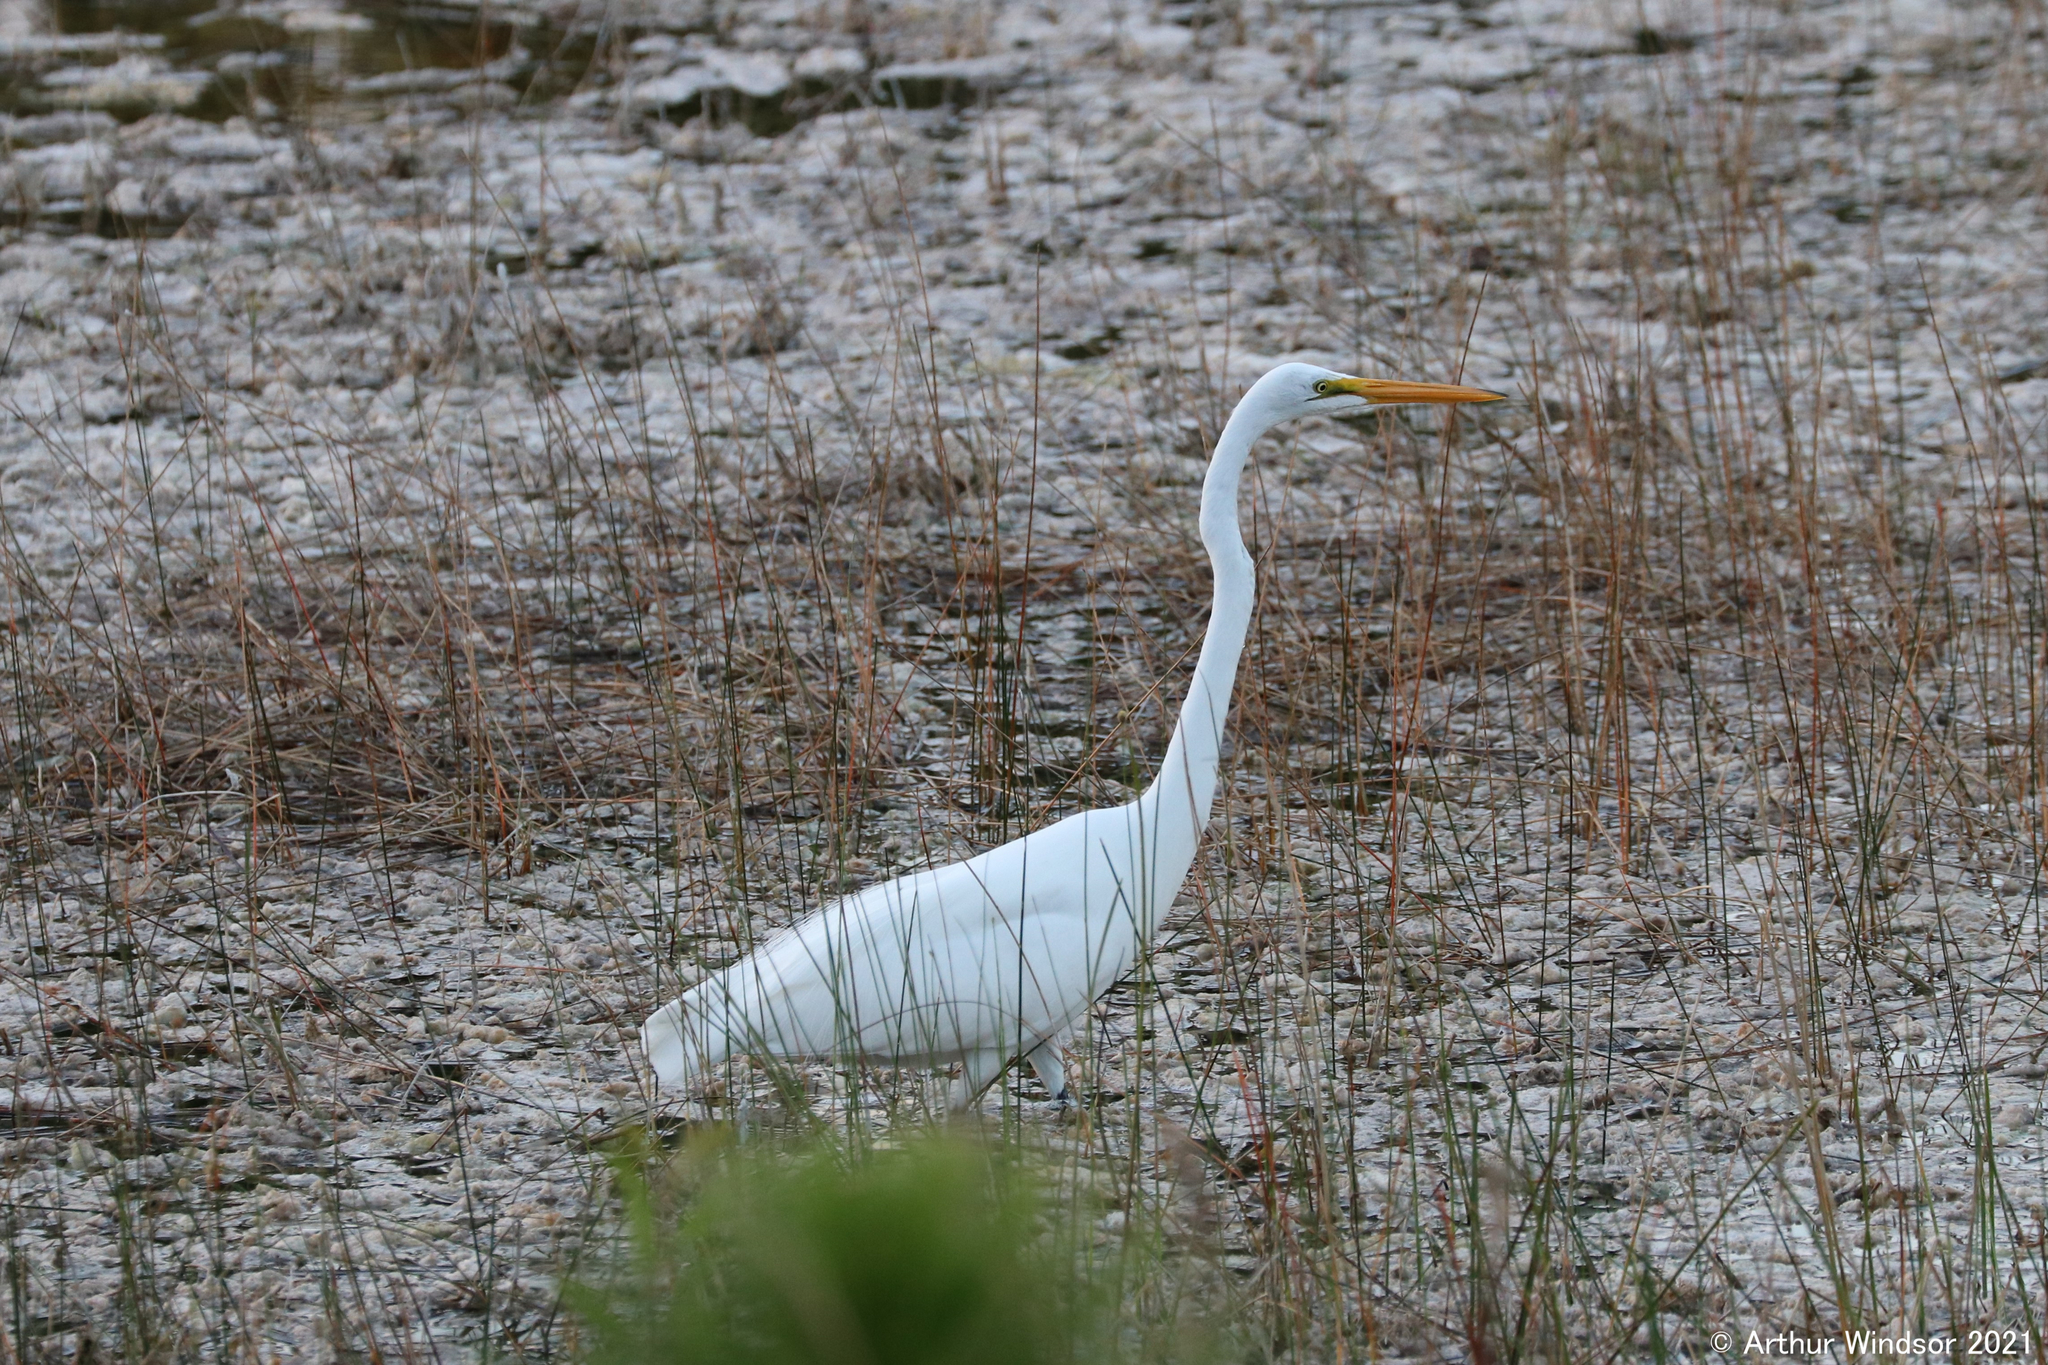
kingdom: Animalia
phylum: Chordata
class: Aves
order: Pelecaniformes
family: Ardeidae
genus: Ardea
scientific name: Ardea alba
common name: Great egret
